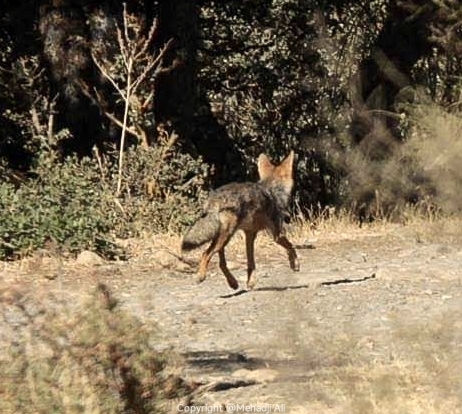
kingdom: Animalia
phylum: Chordata
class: Mammalia
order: Carnivora
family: Canidae
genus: Canis
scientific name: Canis lupaster
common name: African golden wolf
